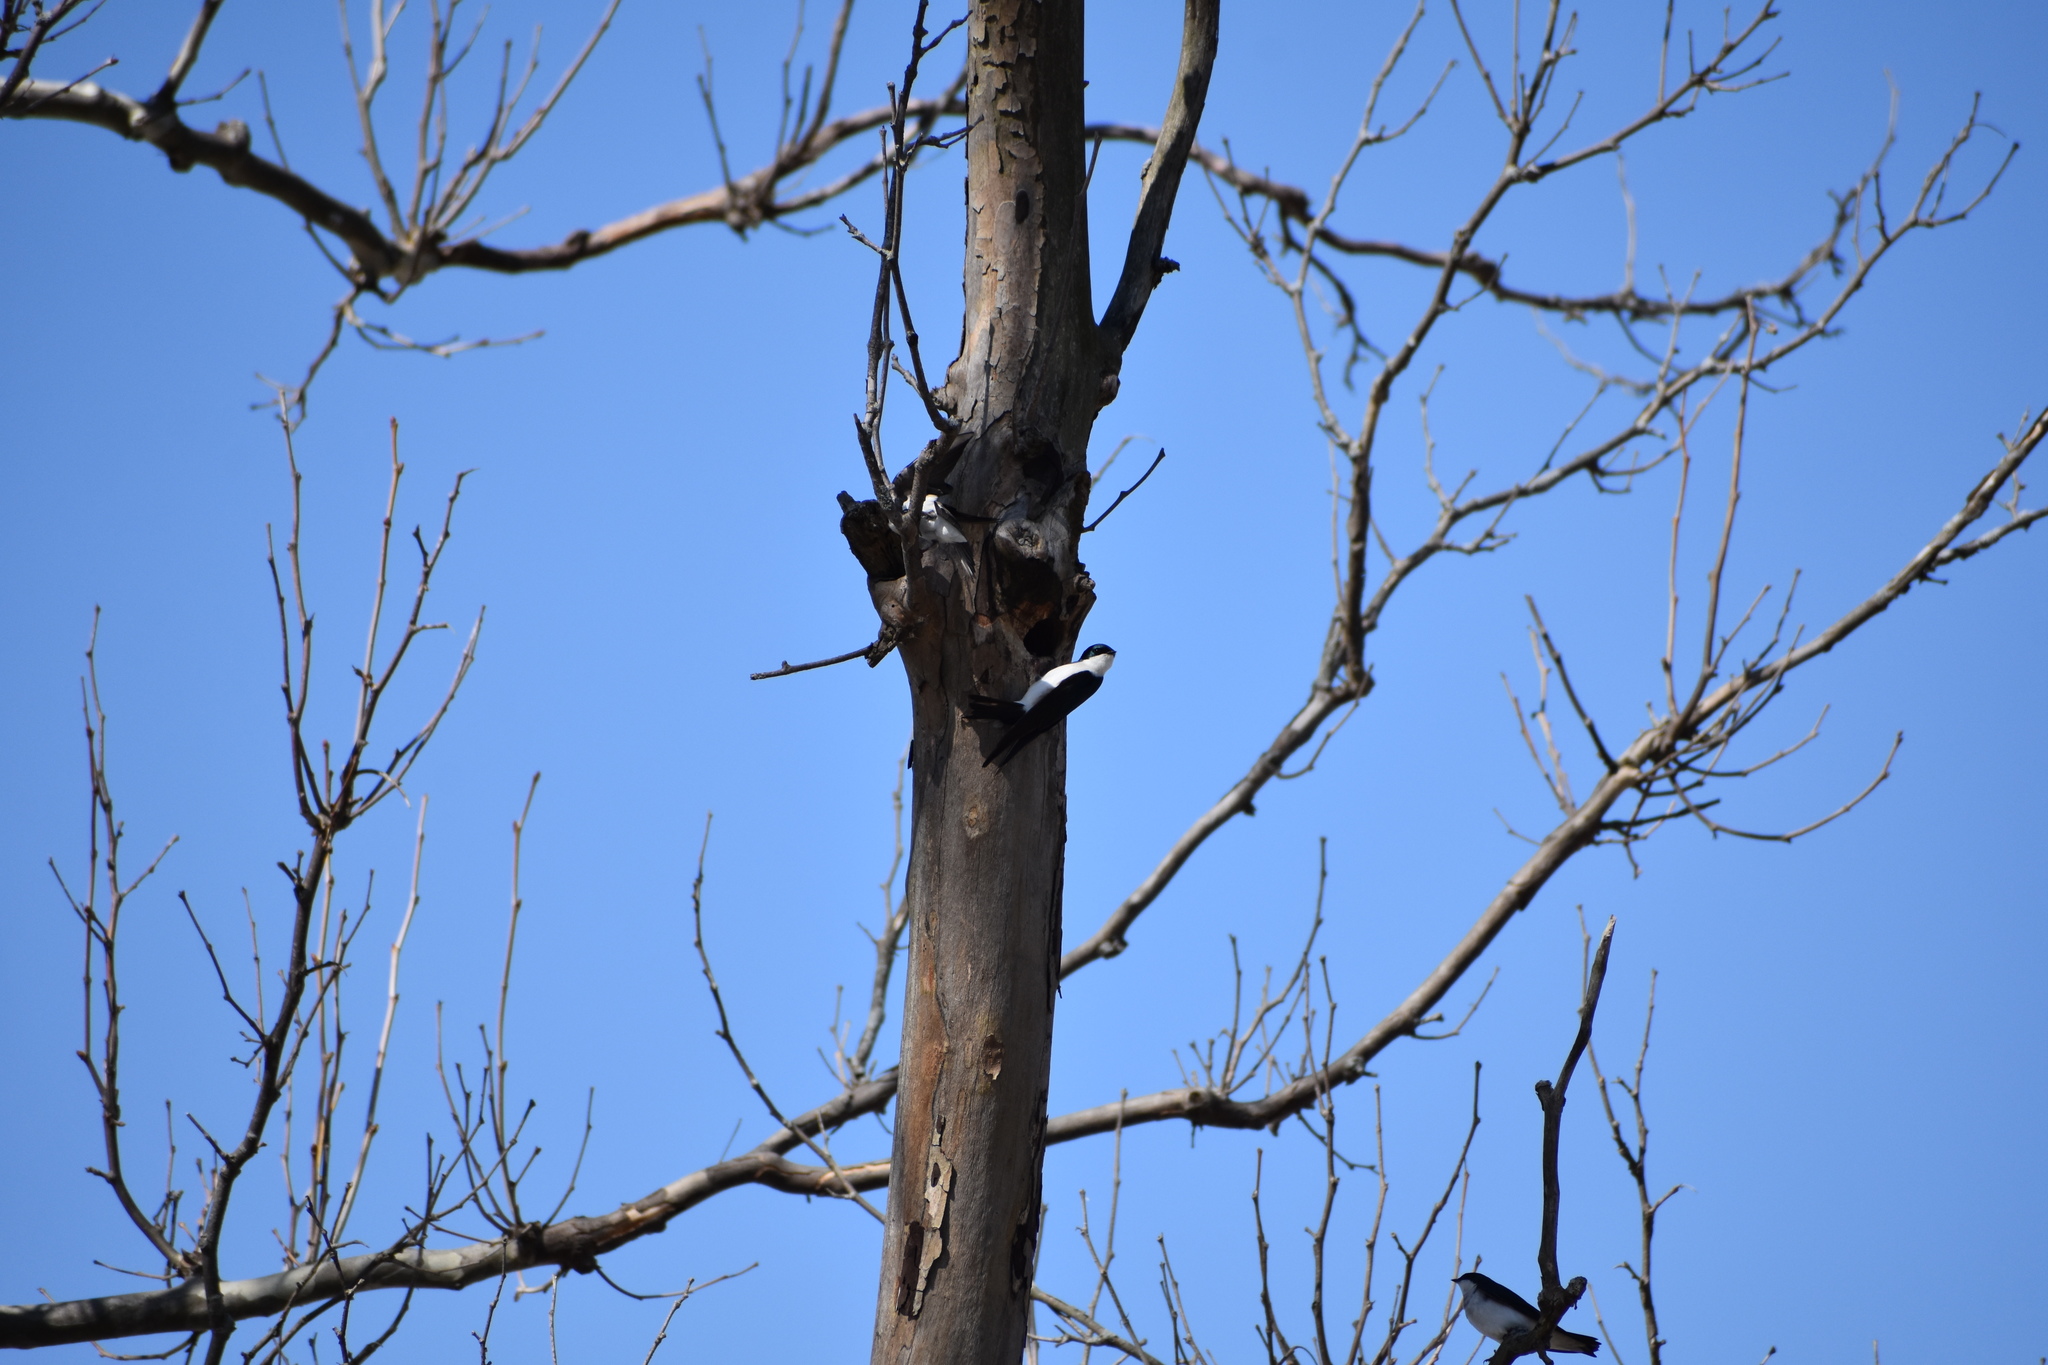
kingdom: Animalia
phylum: Chordata
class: Aves
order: Passeriformes
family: Hirundinidae
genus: Tachycineta
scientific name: Tachycineta bicolor
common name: Tree swallow
